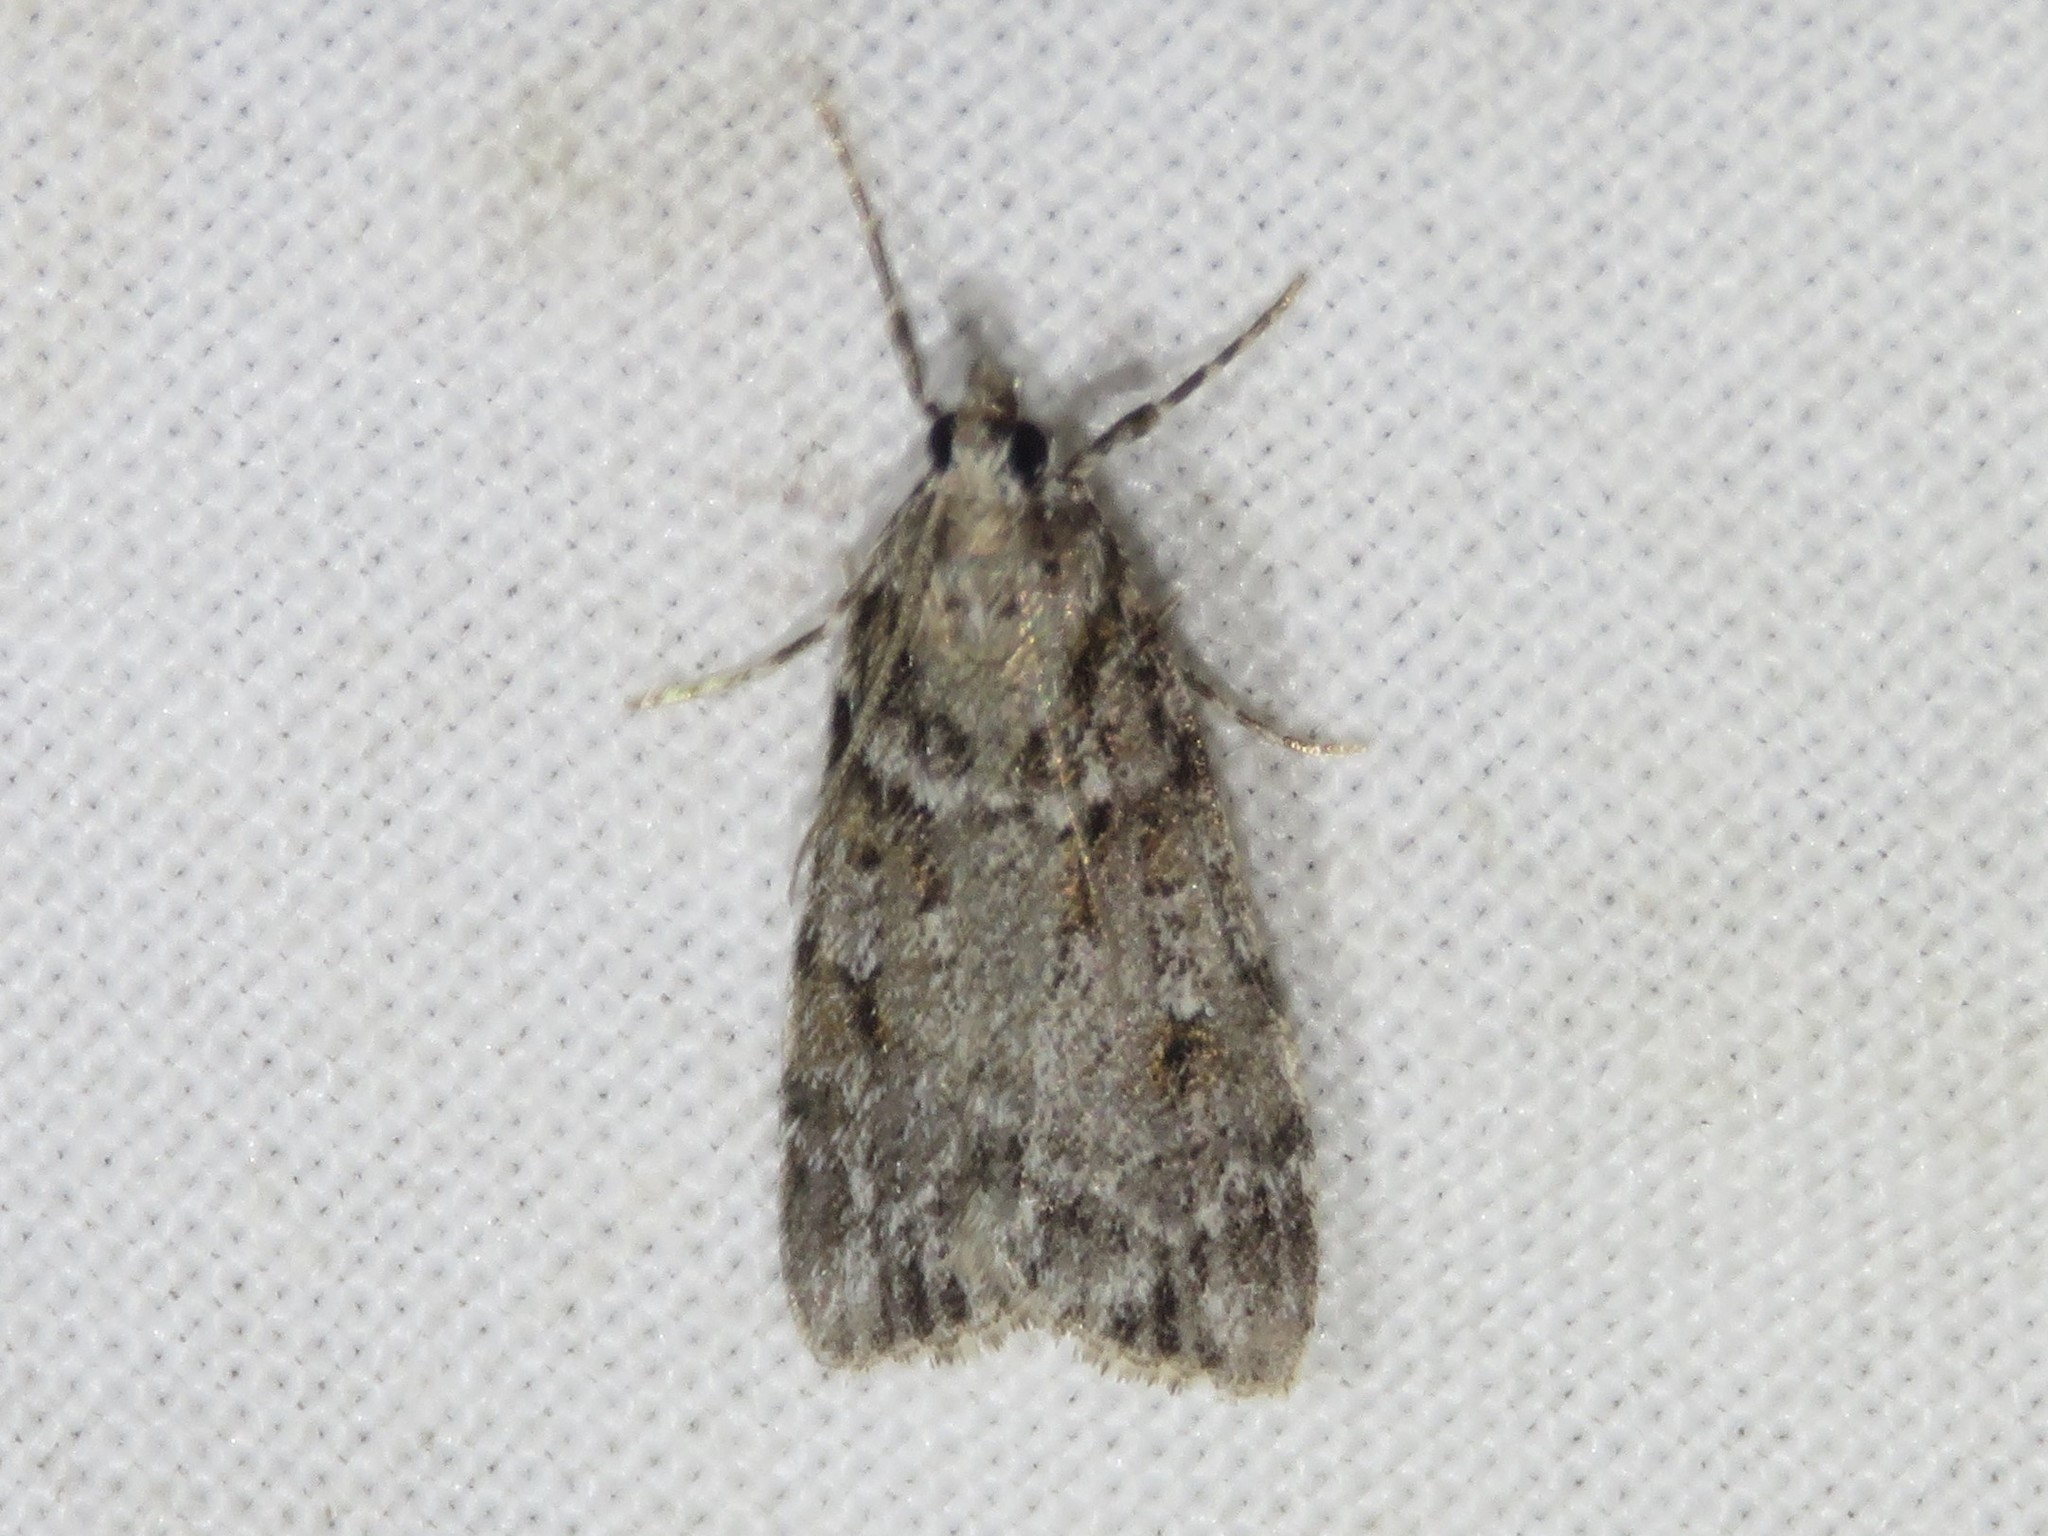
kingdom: Animalia
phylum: Arthropoda
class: Insecta
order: Lepidoptera
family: Crambidae
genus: Scoparia
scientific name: Scoparia biplagialis
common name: Double-striped scoparia moth
